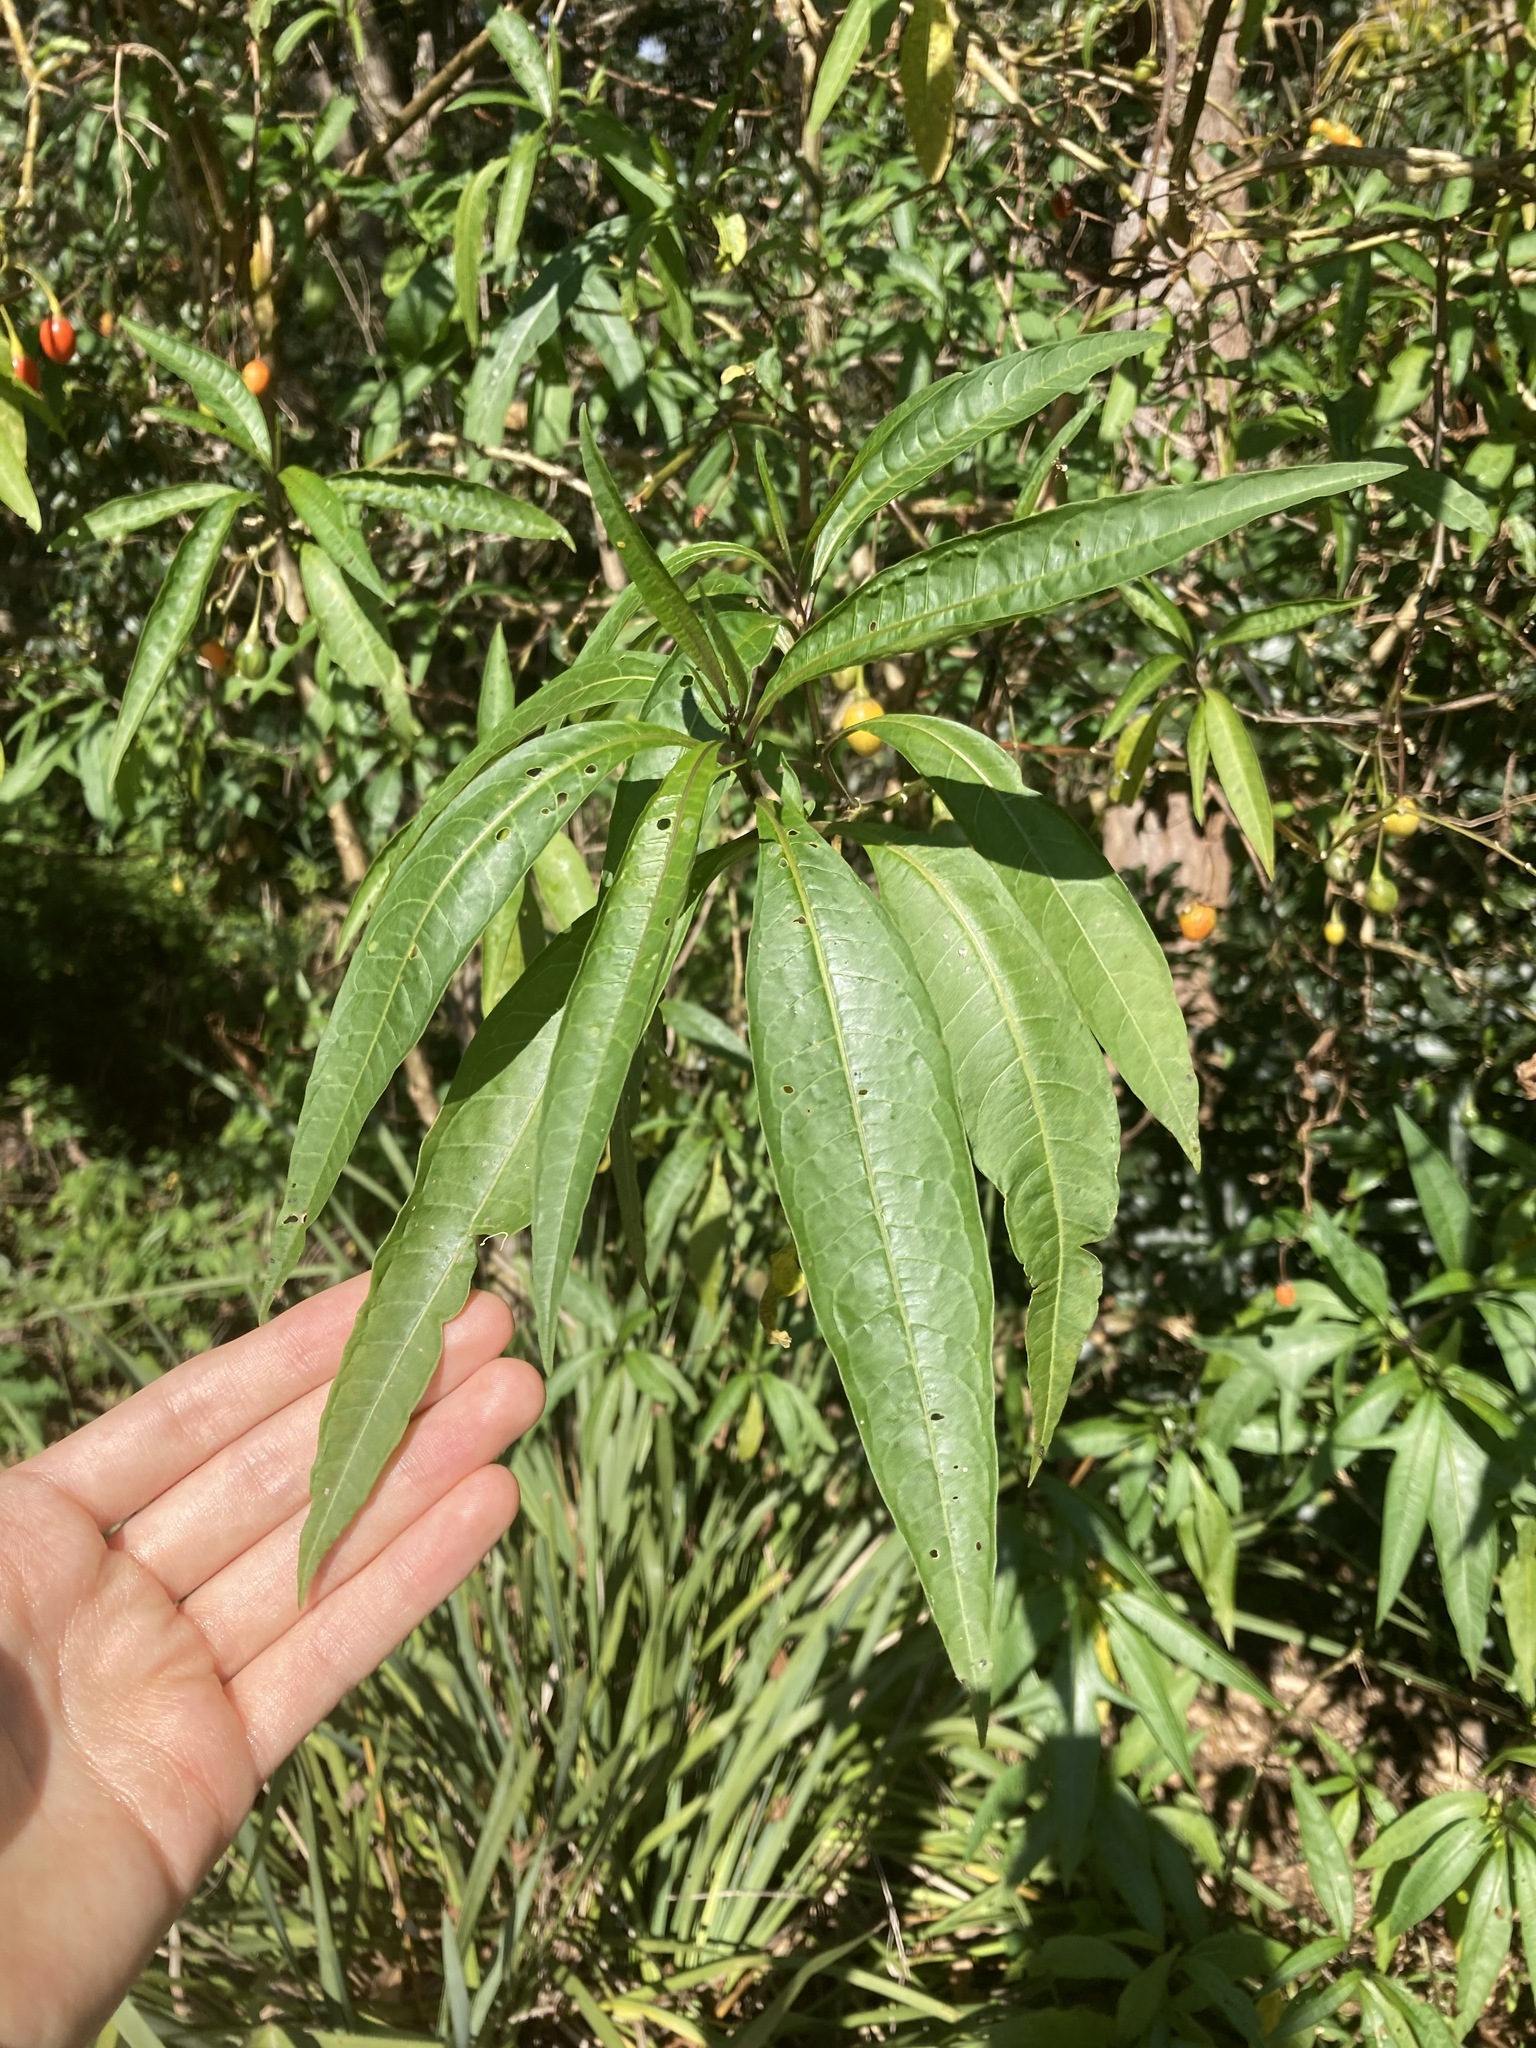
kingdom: Plantae
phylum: Tracheophyta
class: Magnoliopsida
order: Solanales
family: Solanaceae
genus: Solanum
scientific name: Solanum aviculare
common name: New zealand nightshade
